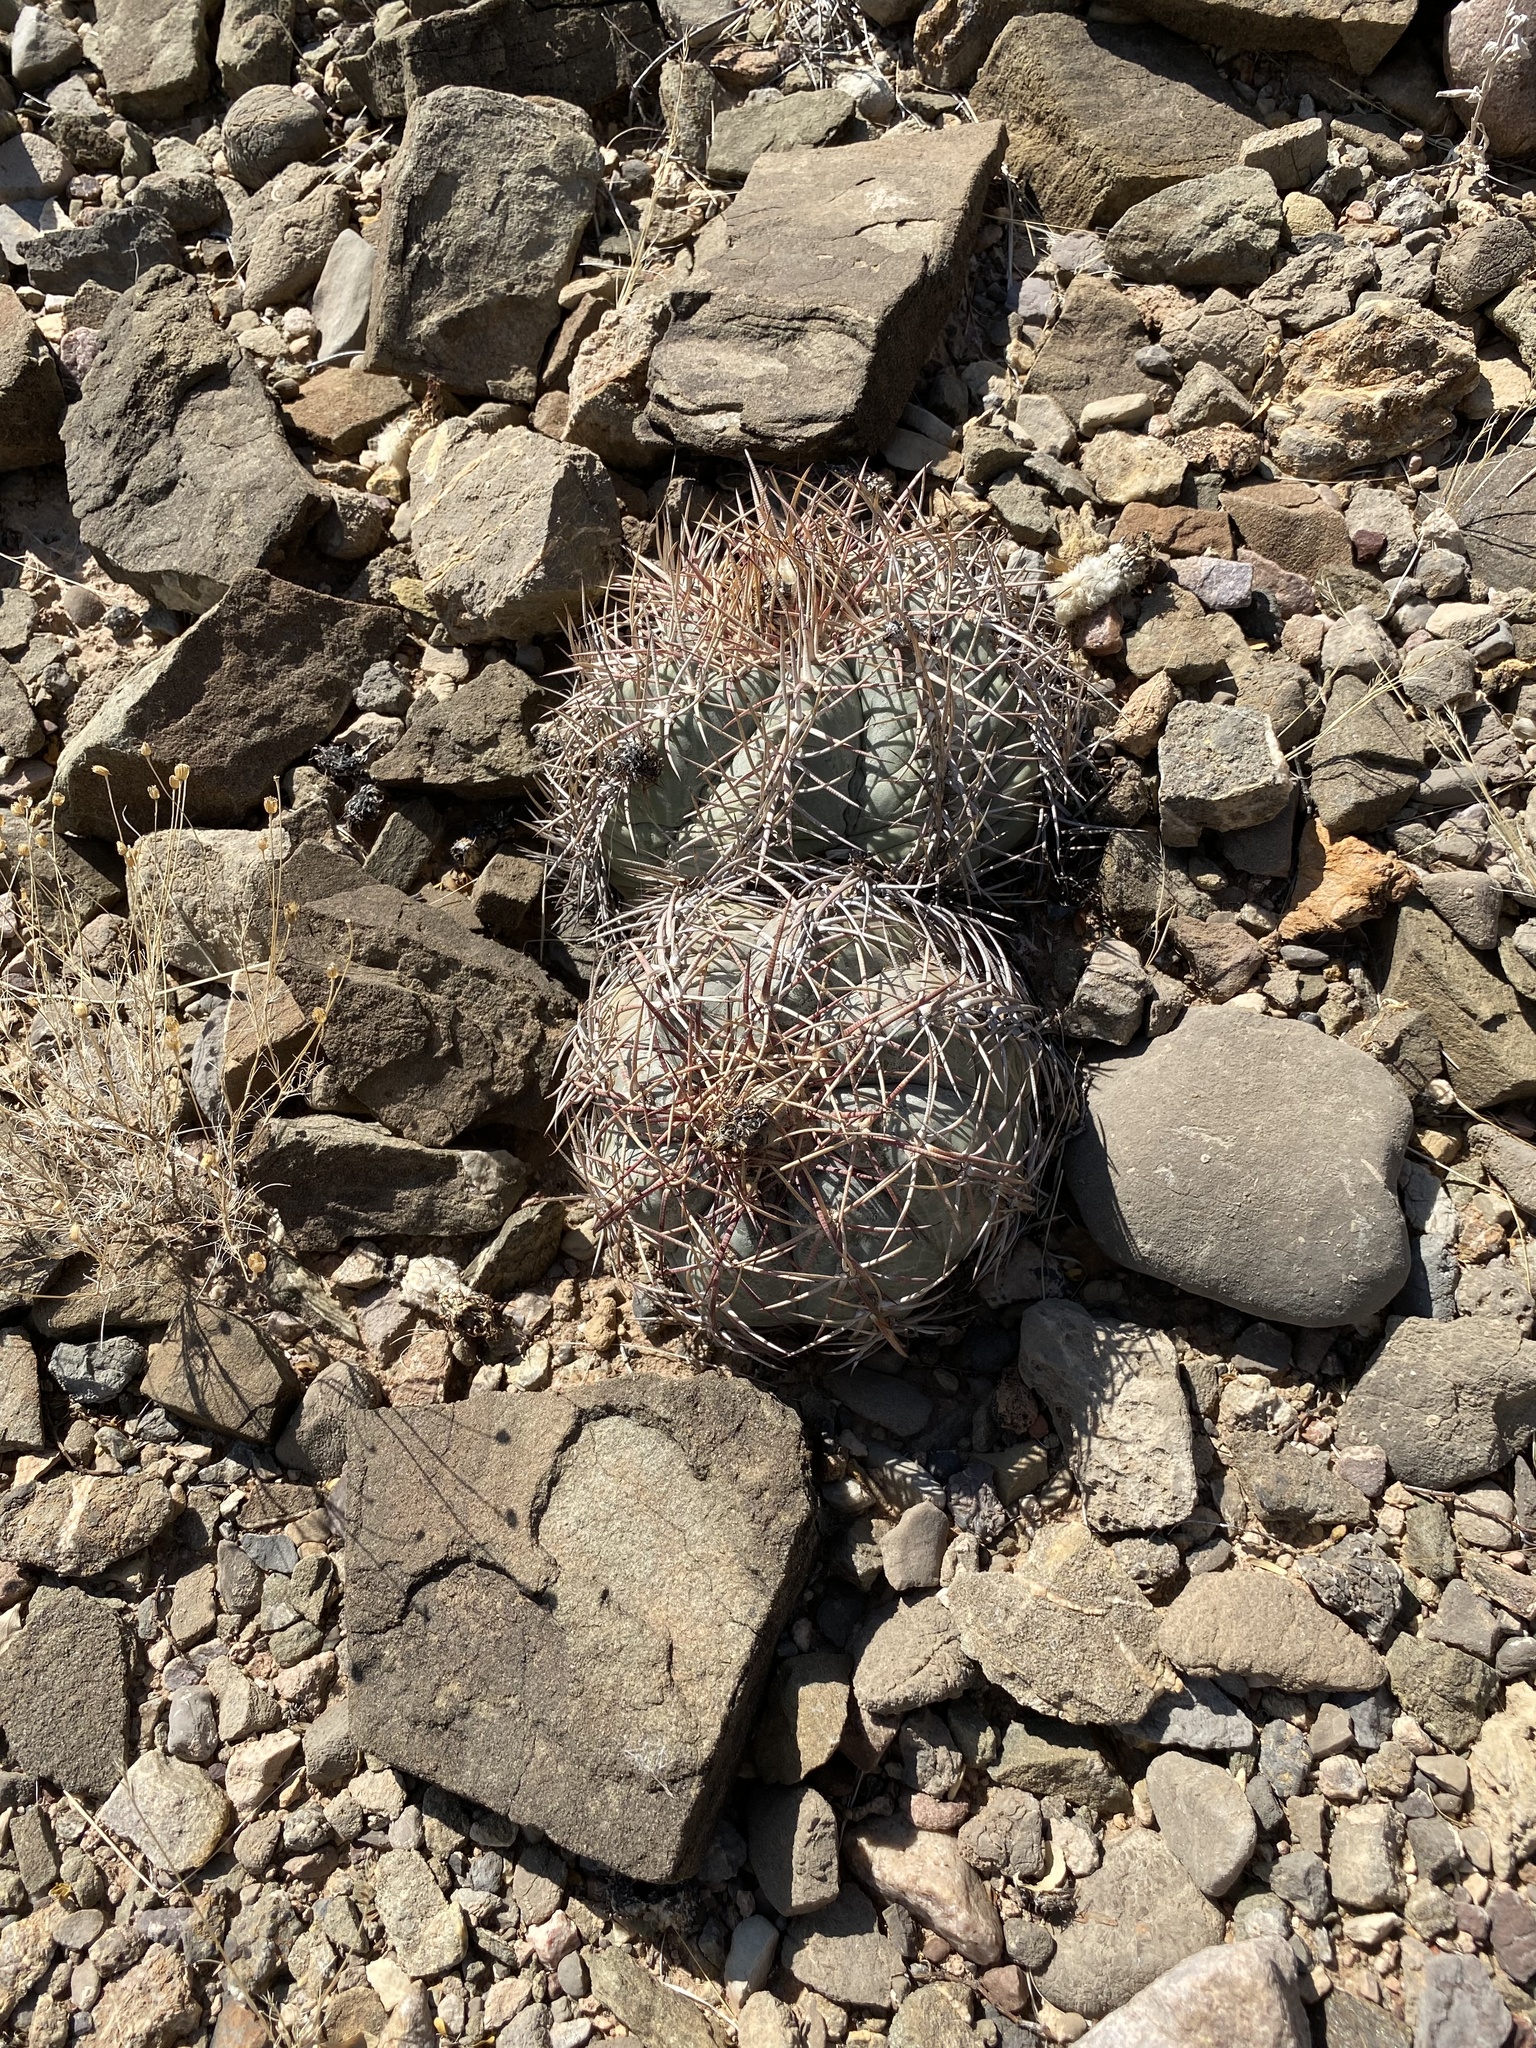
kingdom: Plantae
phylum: Tracheophyta
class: Magnoliopsida
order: Caryophyllales
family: Cactaceae
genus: Echinocactus
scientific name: Echinocactus horizonthalonius
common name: Devilshead
